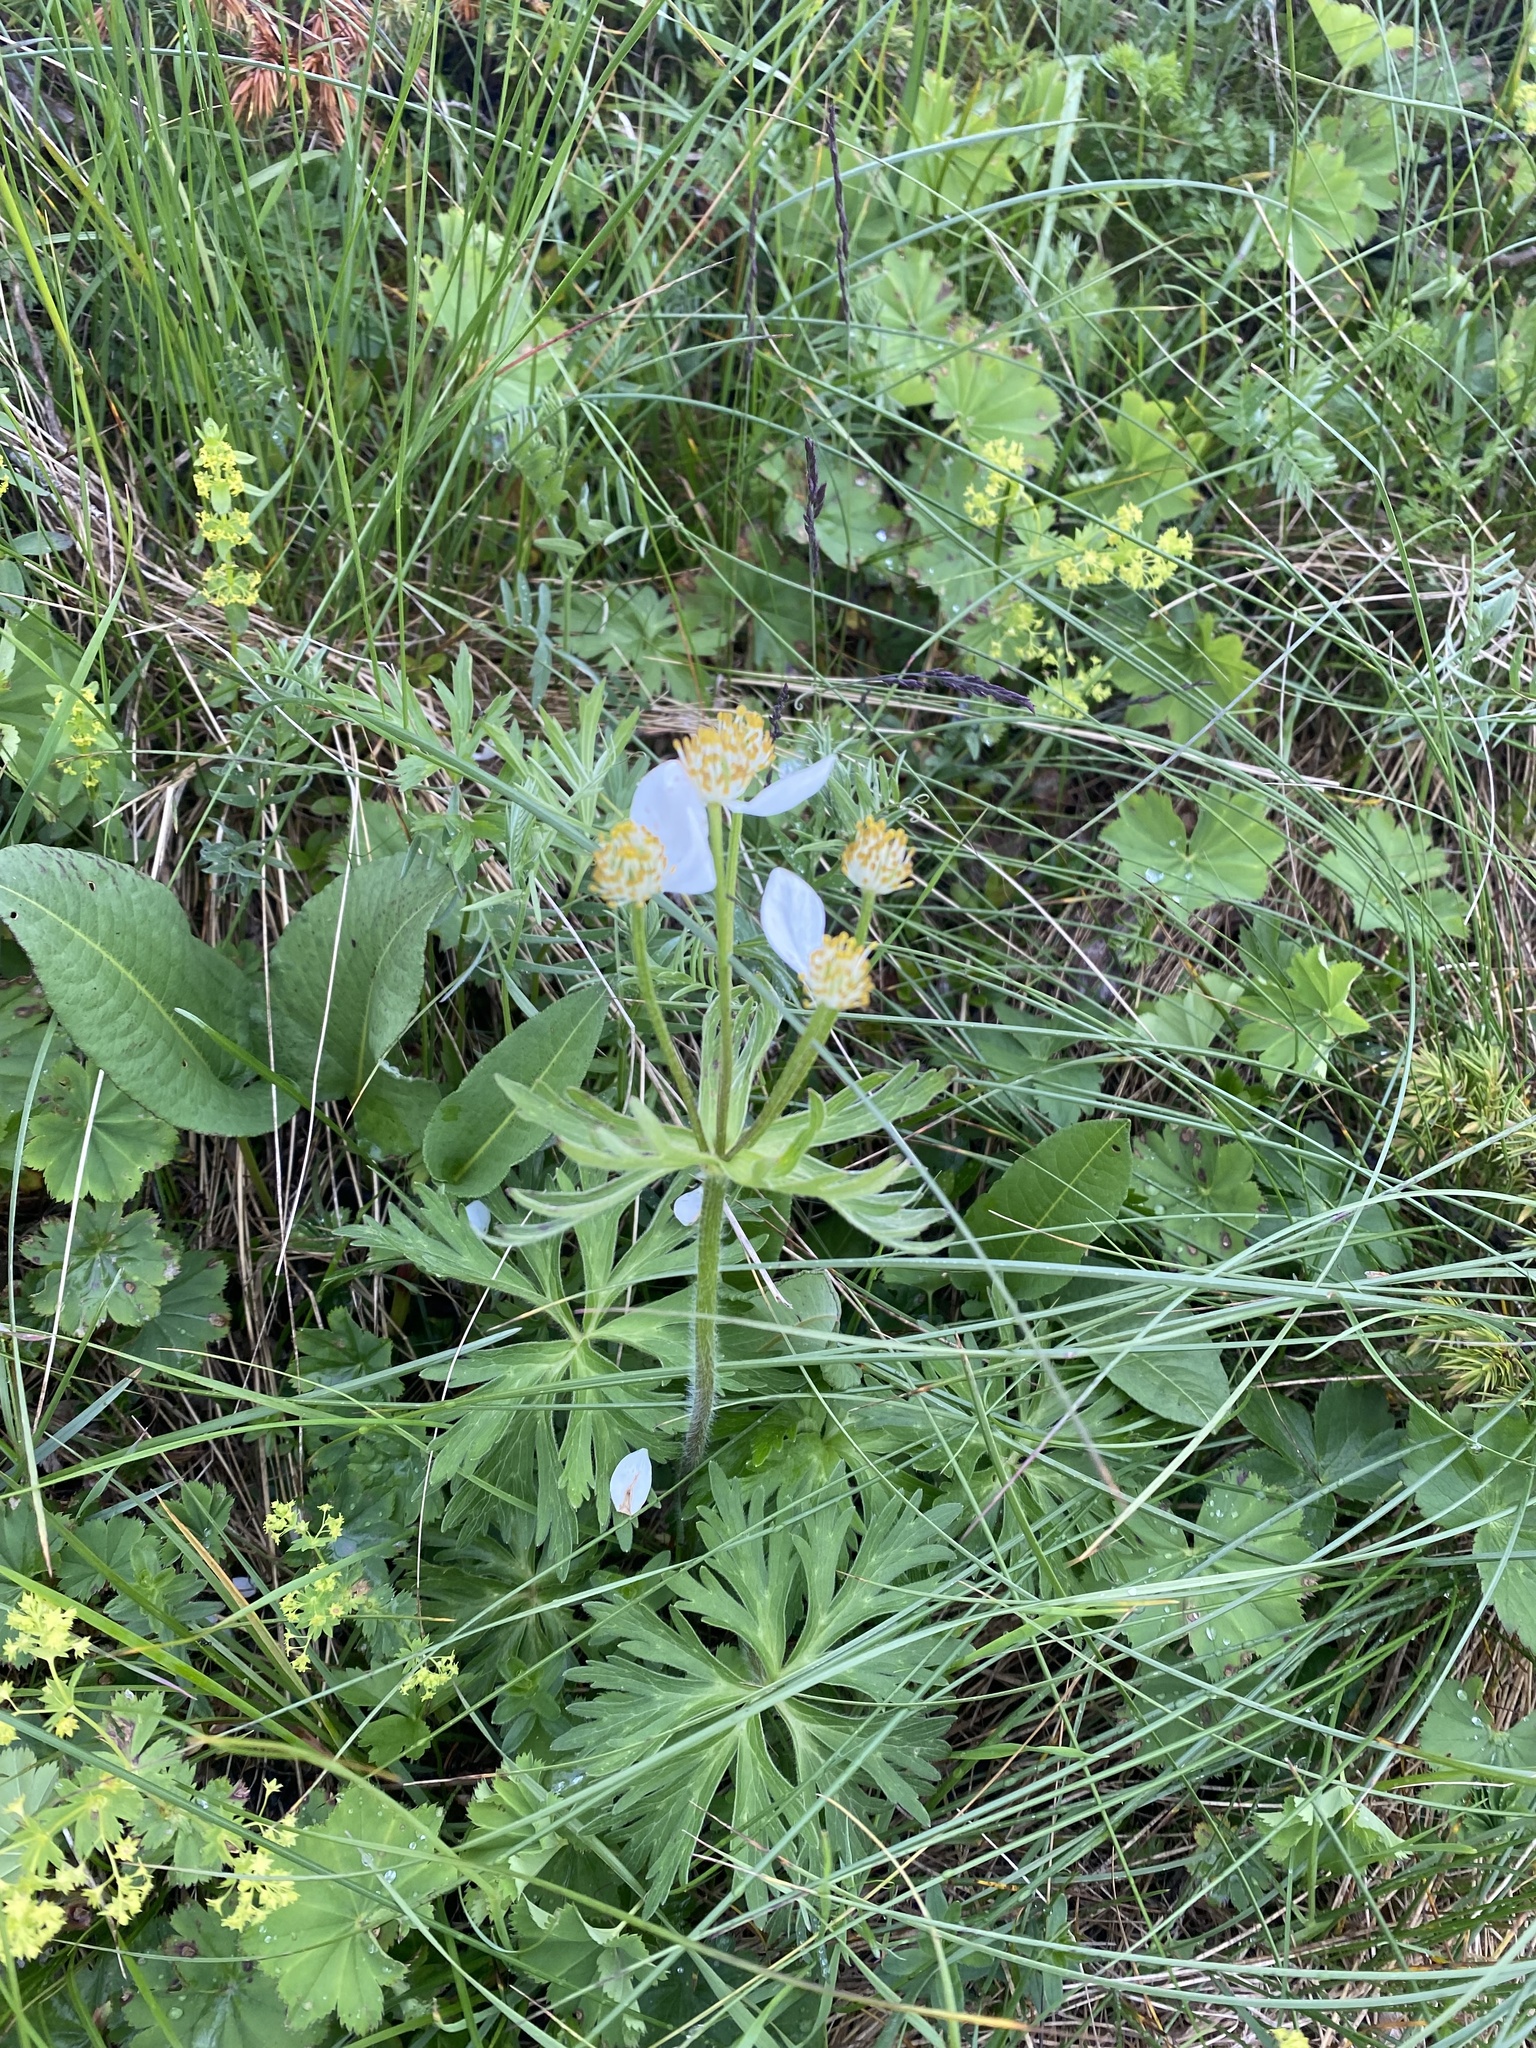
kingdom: Plantae
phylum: Tracheophyta
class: Magnoliopsida
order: Ranunculales
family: Ranunculaceae
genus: Anemonastrum
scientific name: Anemonastrum narcissiflorum
